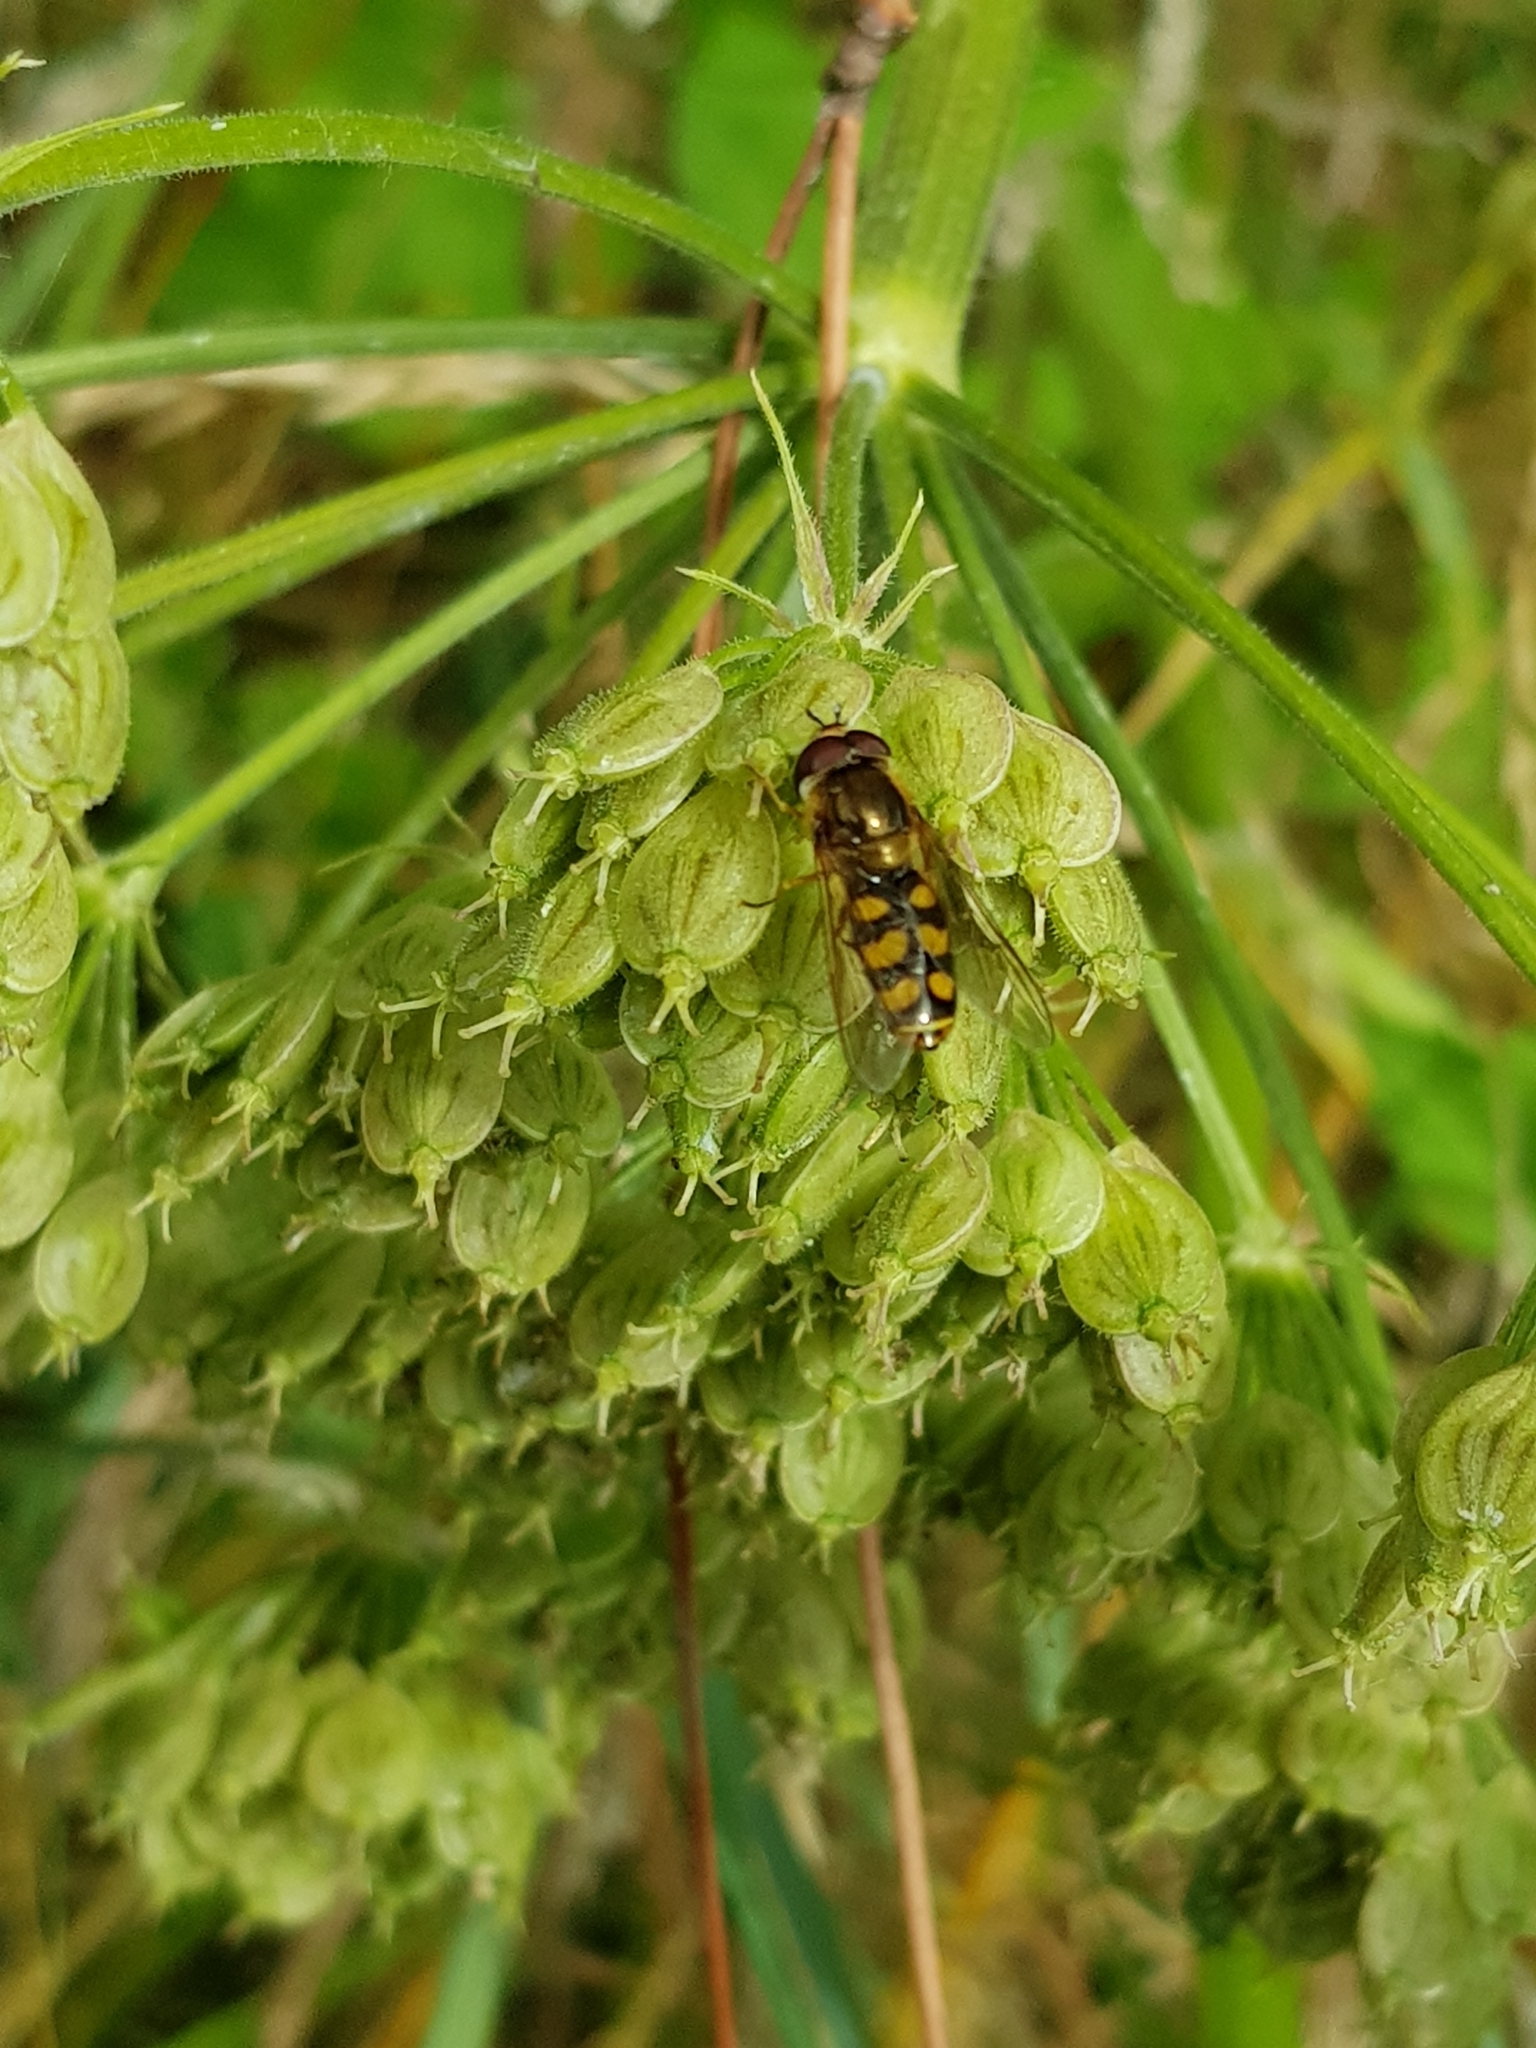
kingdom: Animalia
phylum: Arthropoda
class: Insecta
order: Diptera
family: Syrphidae
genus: Eupeodes
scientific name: Eupeodes
